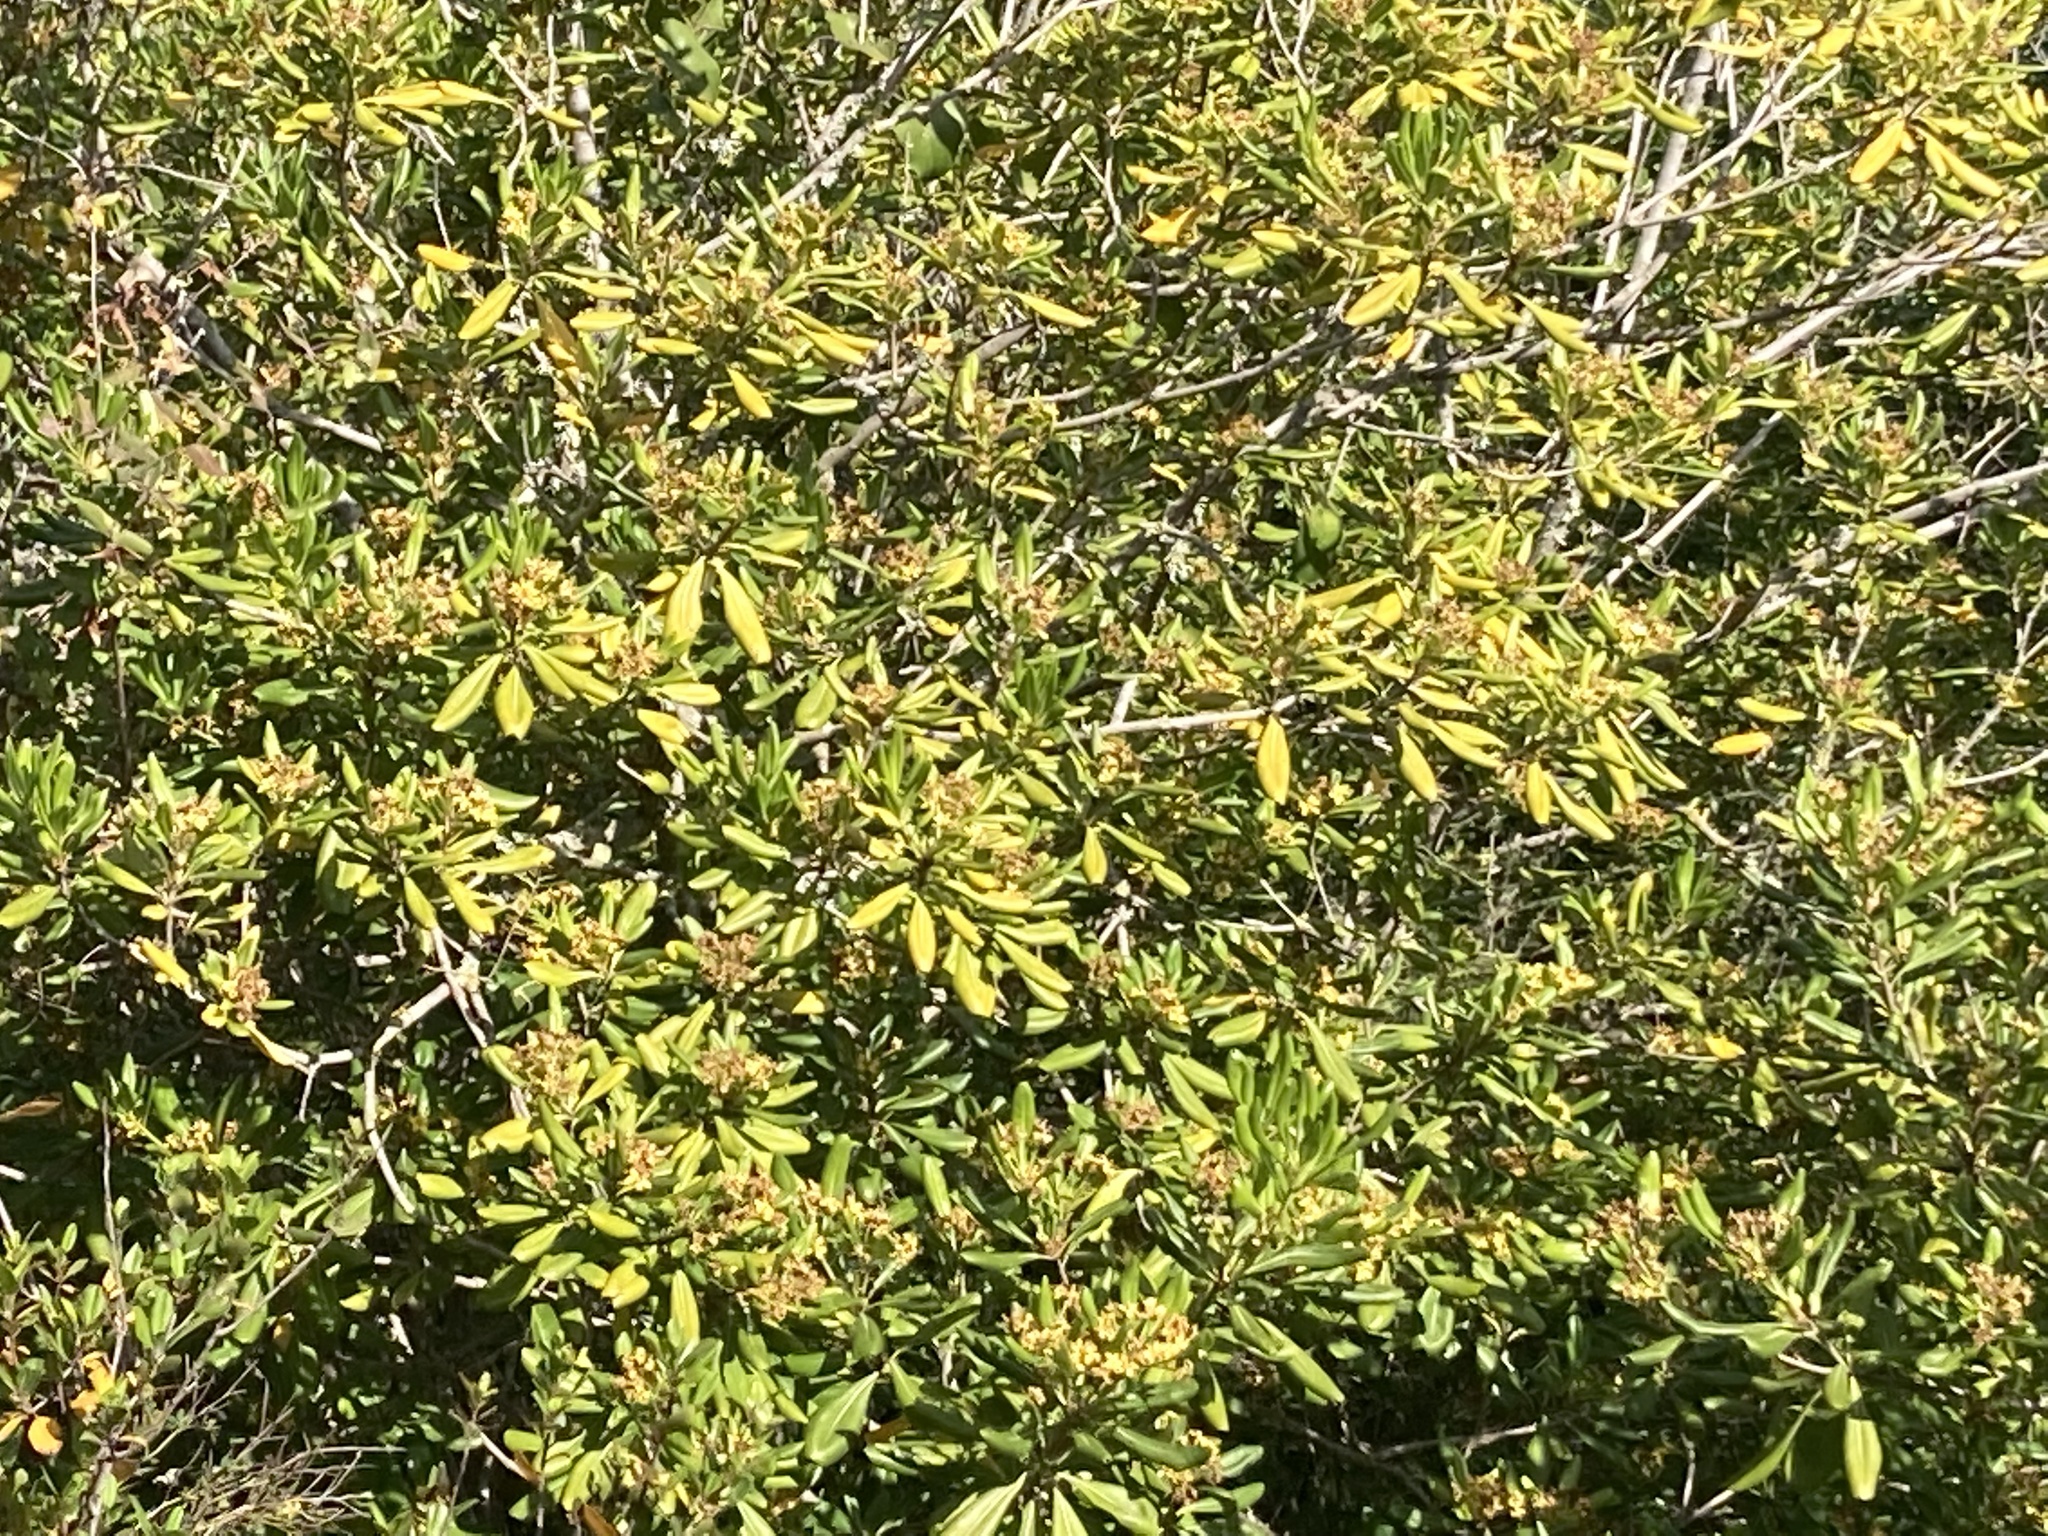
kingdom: Plantae
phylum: Tracheophyta
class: Magnoliopsida
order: Apiales
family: Pittosporaceae
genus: Pittosporum
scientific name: Pittosporum tobira
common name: Japanese cheesewood
